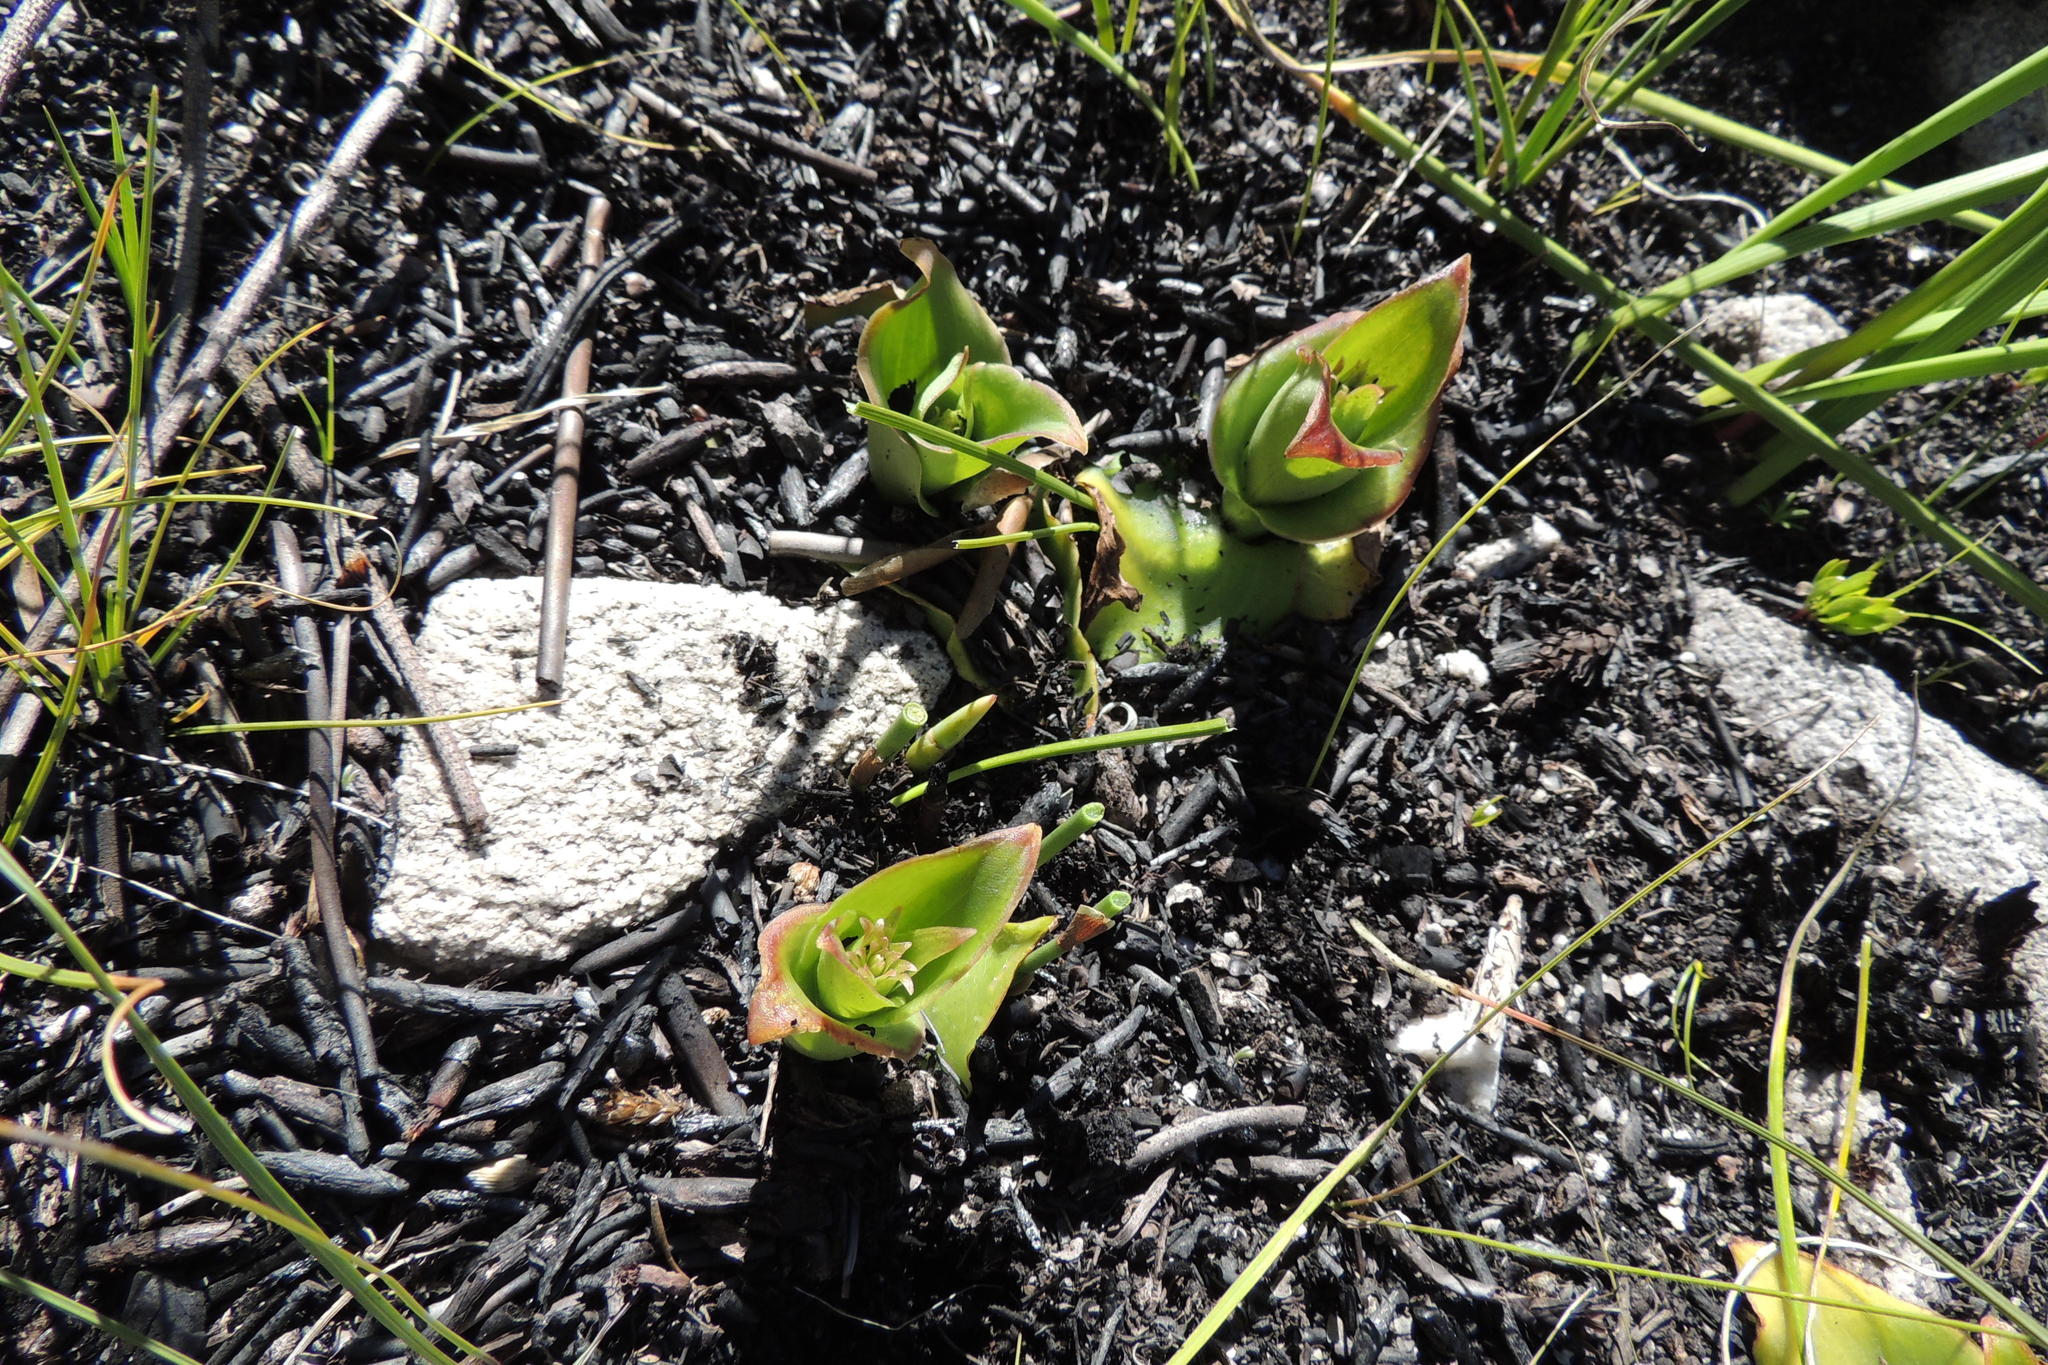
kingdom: Plantae
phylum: Tracheophyta
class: Liliopsida
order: Asparagales
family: Orchidaceae
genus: Satyrium
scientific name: Satyrium acuminatum
